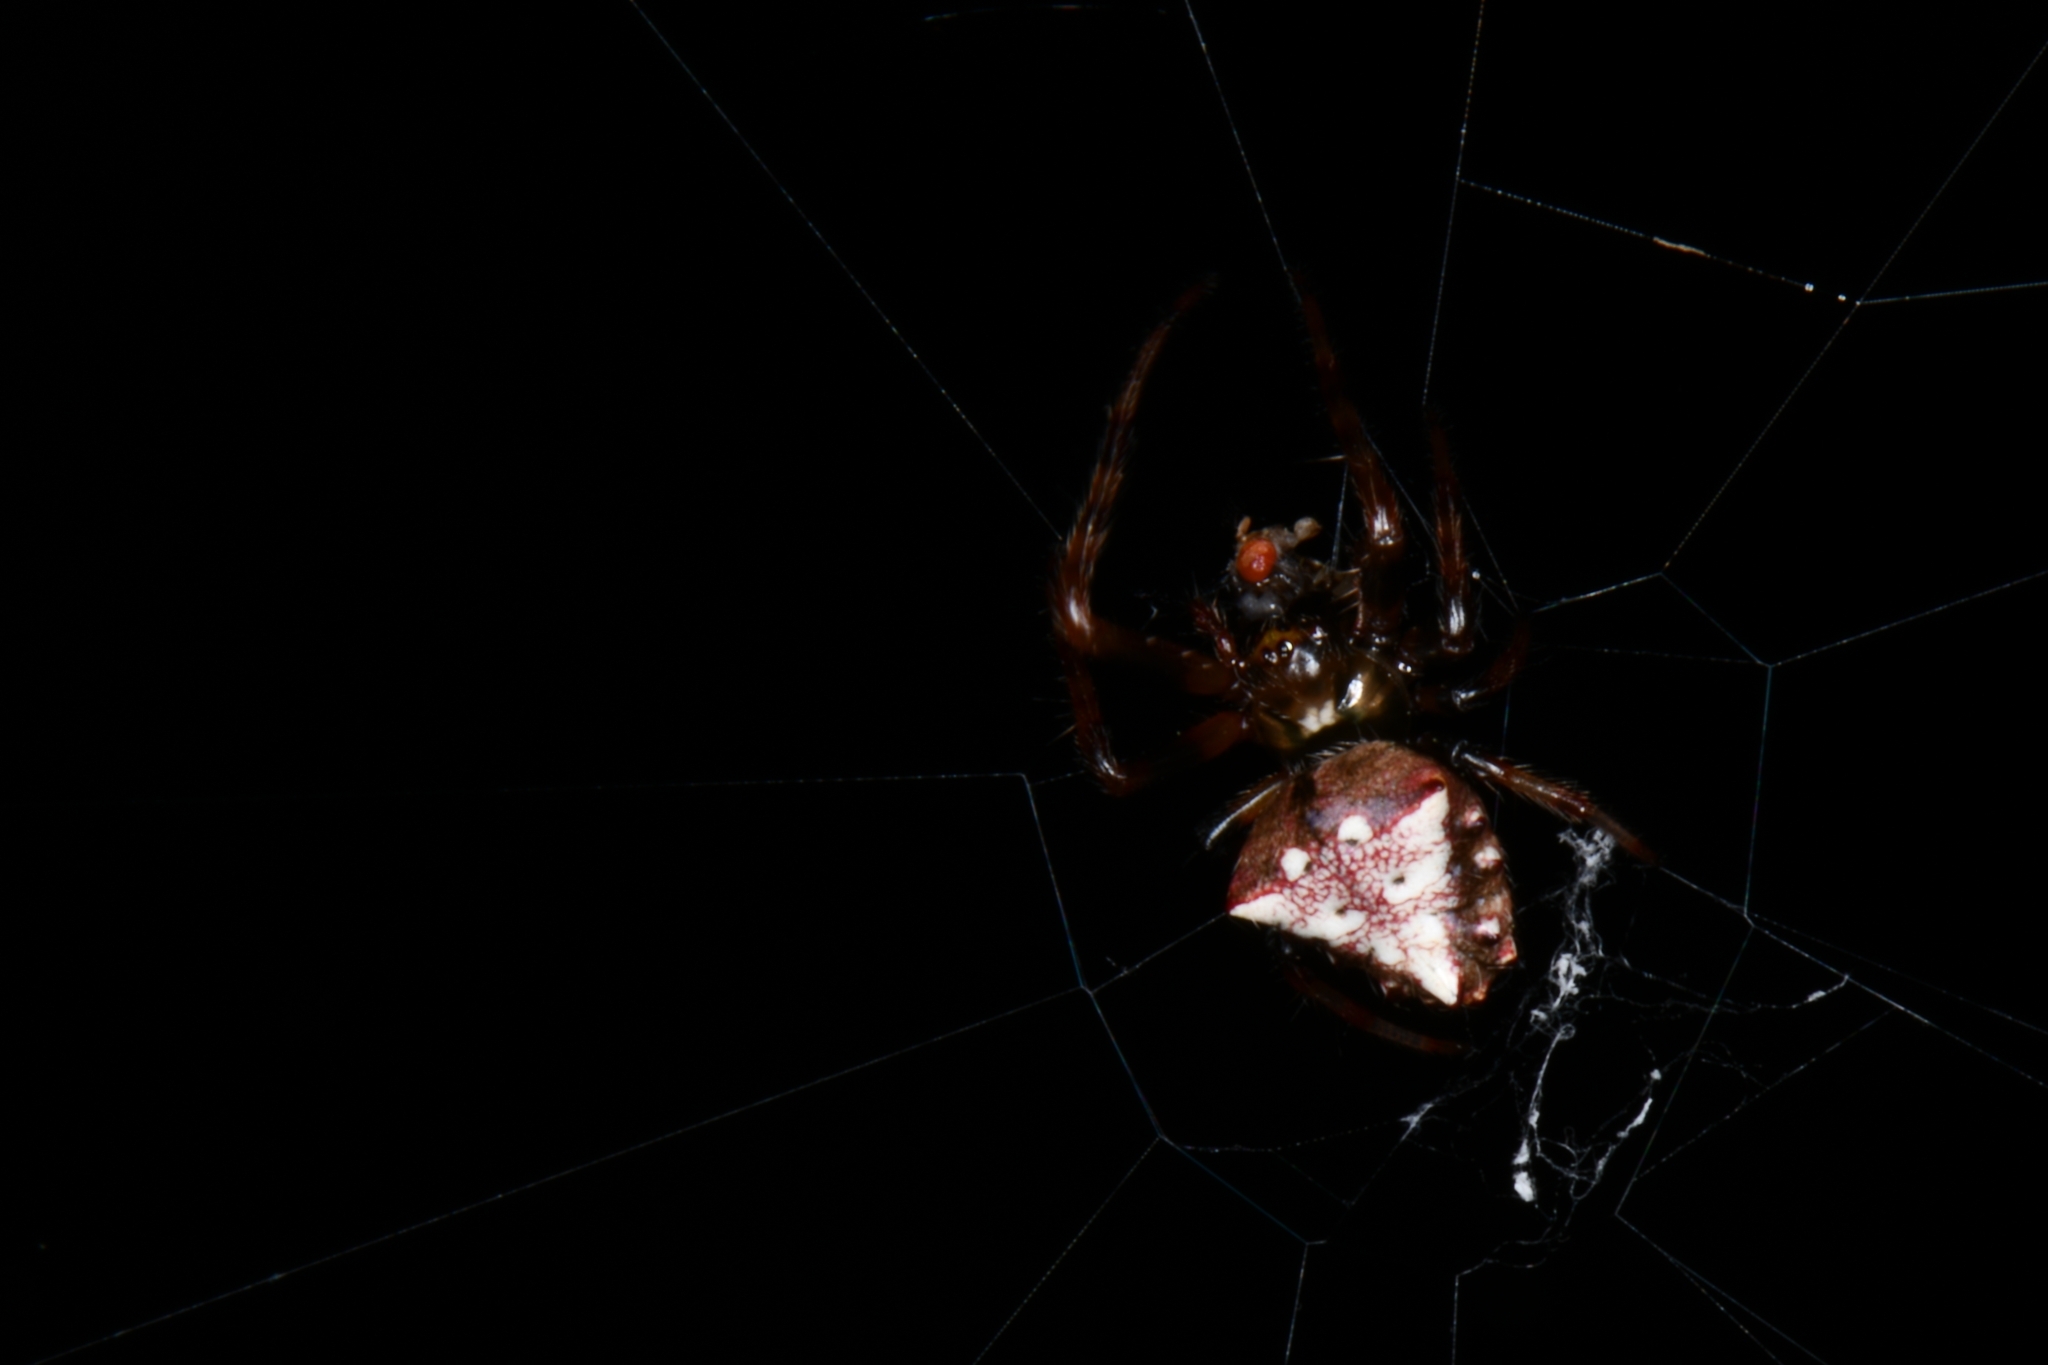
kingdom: Animalia
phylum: Arthropoda
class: Arachnida
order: Araneae
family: Araneidae
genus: Verrucosa
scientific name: Verrucosa arenata
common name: Orb weavers
